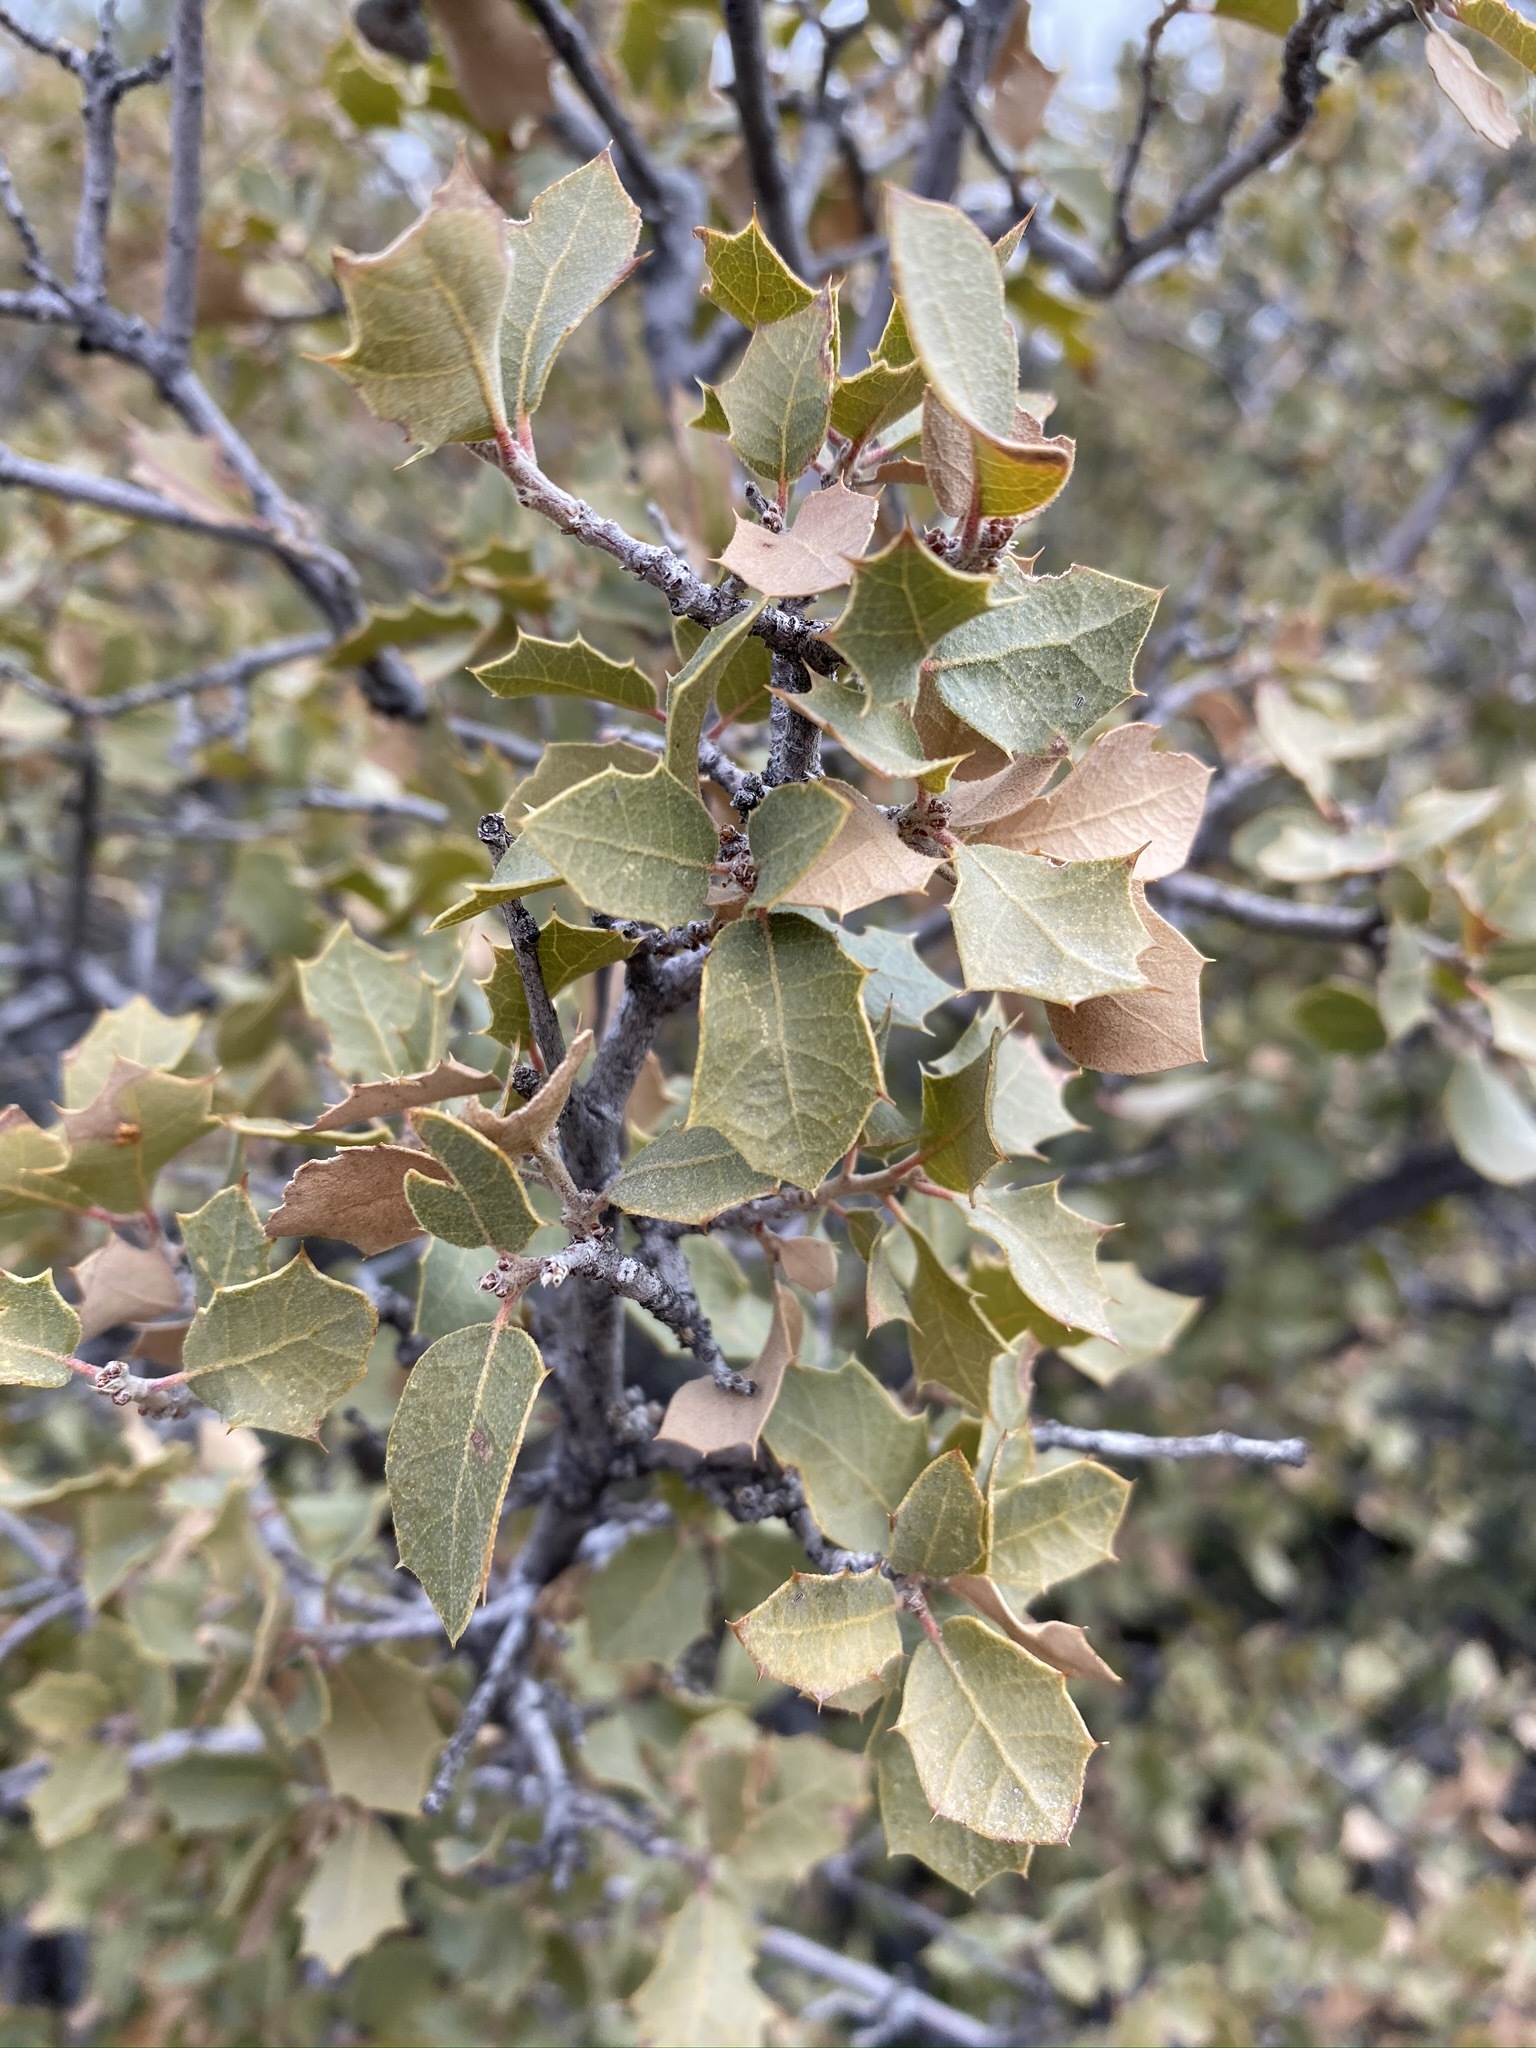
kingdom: Plantae
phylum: Tracheophyta
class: Magnoliopsida
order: Fagales
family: Fagaceae
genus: Quercus
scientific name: Quercus turbinella
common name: Sonoran scrub oak
